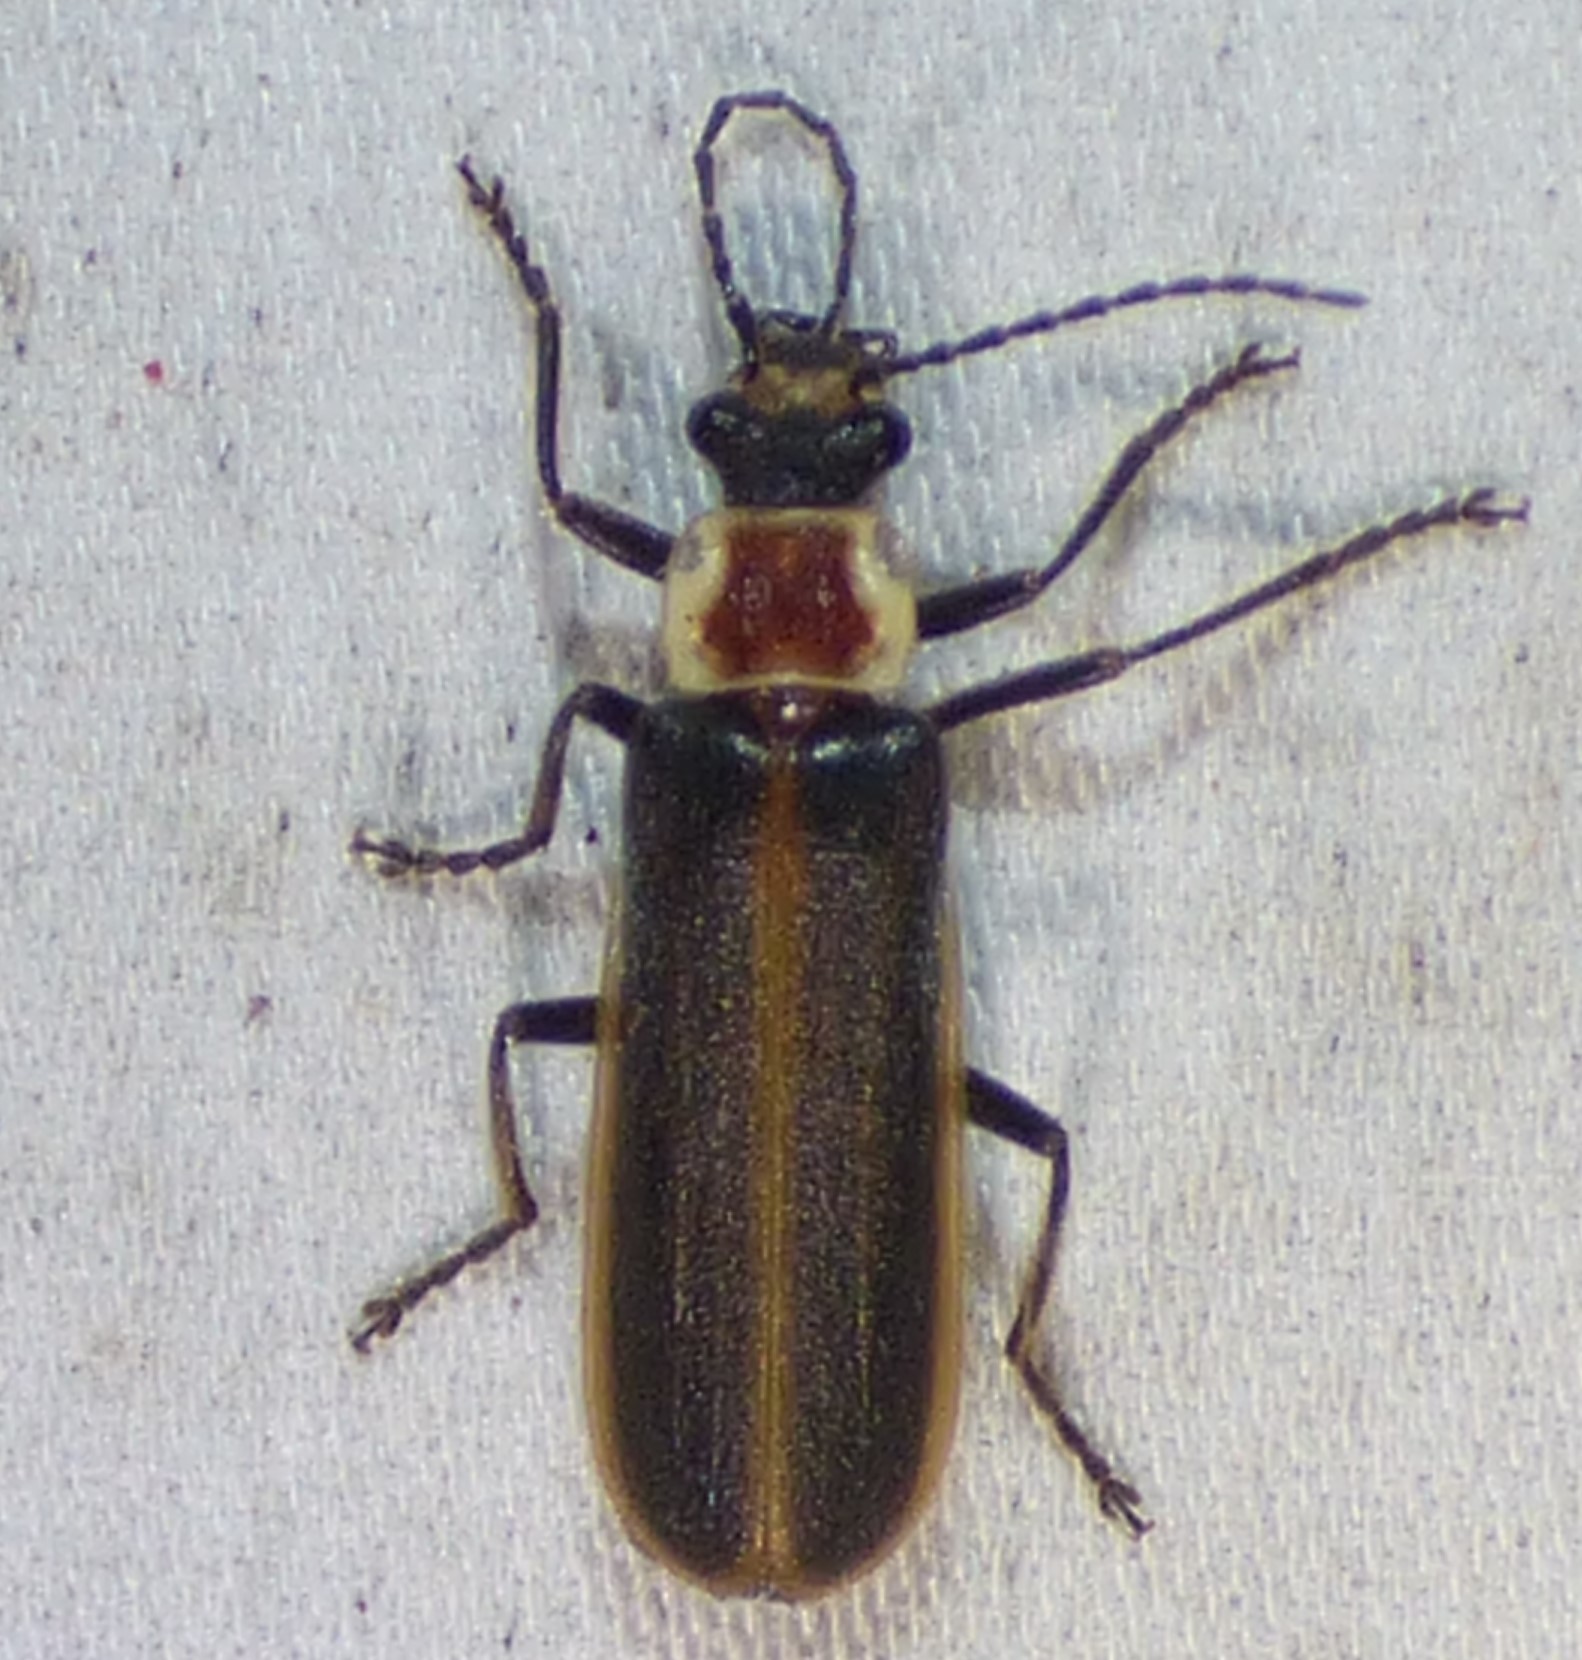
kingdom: Animalia
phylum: Arthropoda
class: Insecta
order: Coleoptera
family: Cantharidae
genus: Podabrus
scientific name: Podabrus fissus
